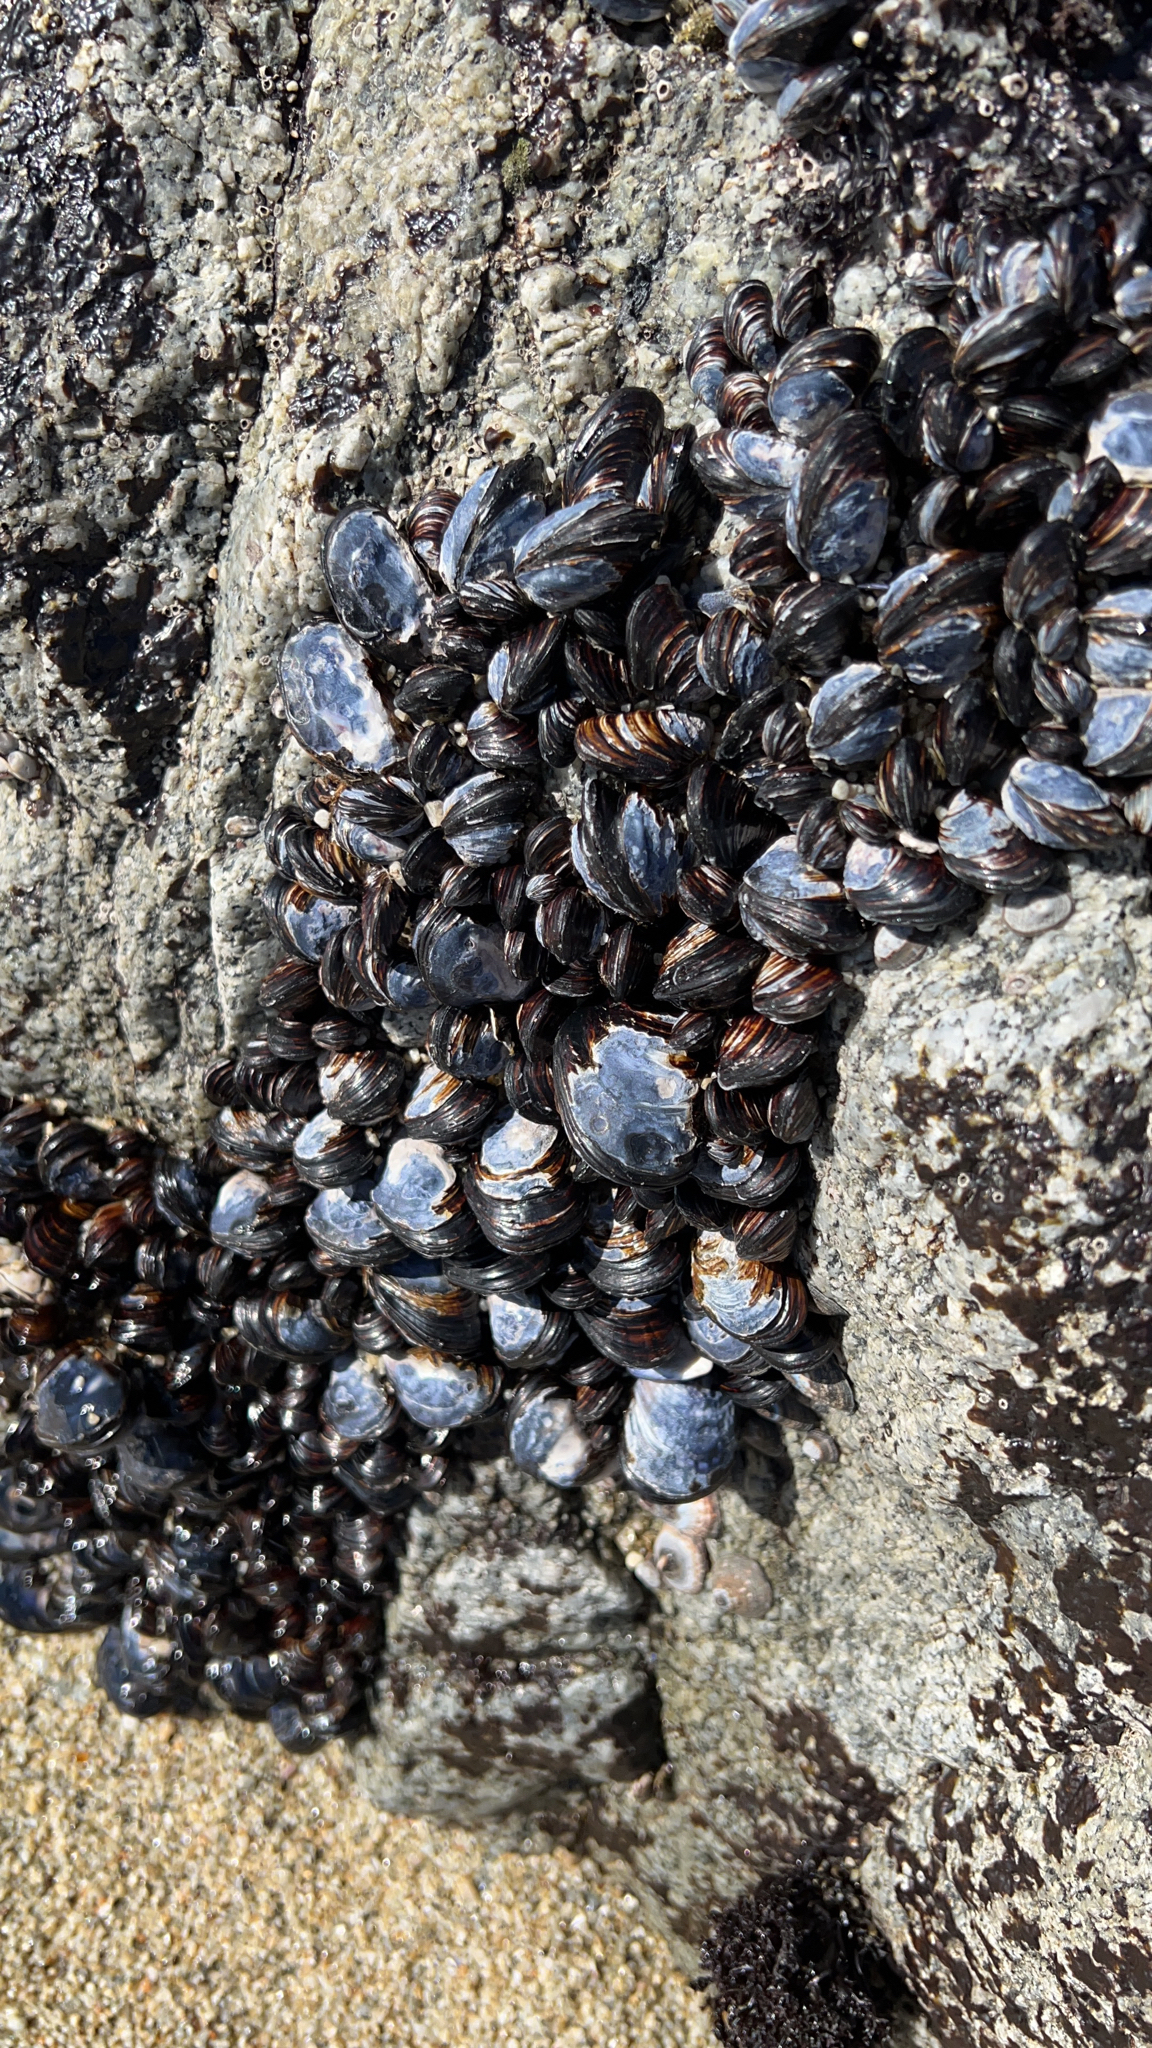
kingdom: Animalia
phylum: Mollusca
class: Bivalvia
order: Mytilida
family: Mytilidae
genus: Mytilus
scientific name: Mytilus californianus
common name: California mussel
